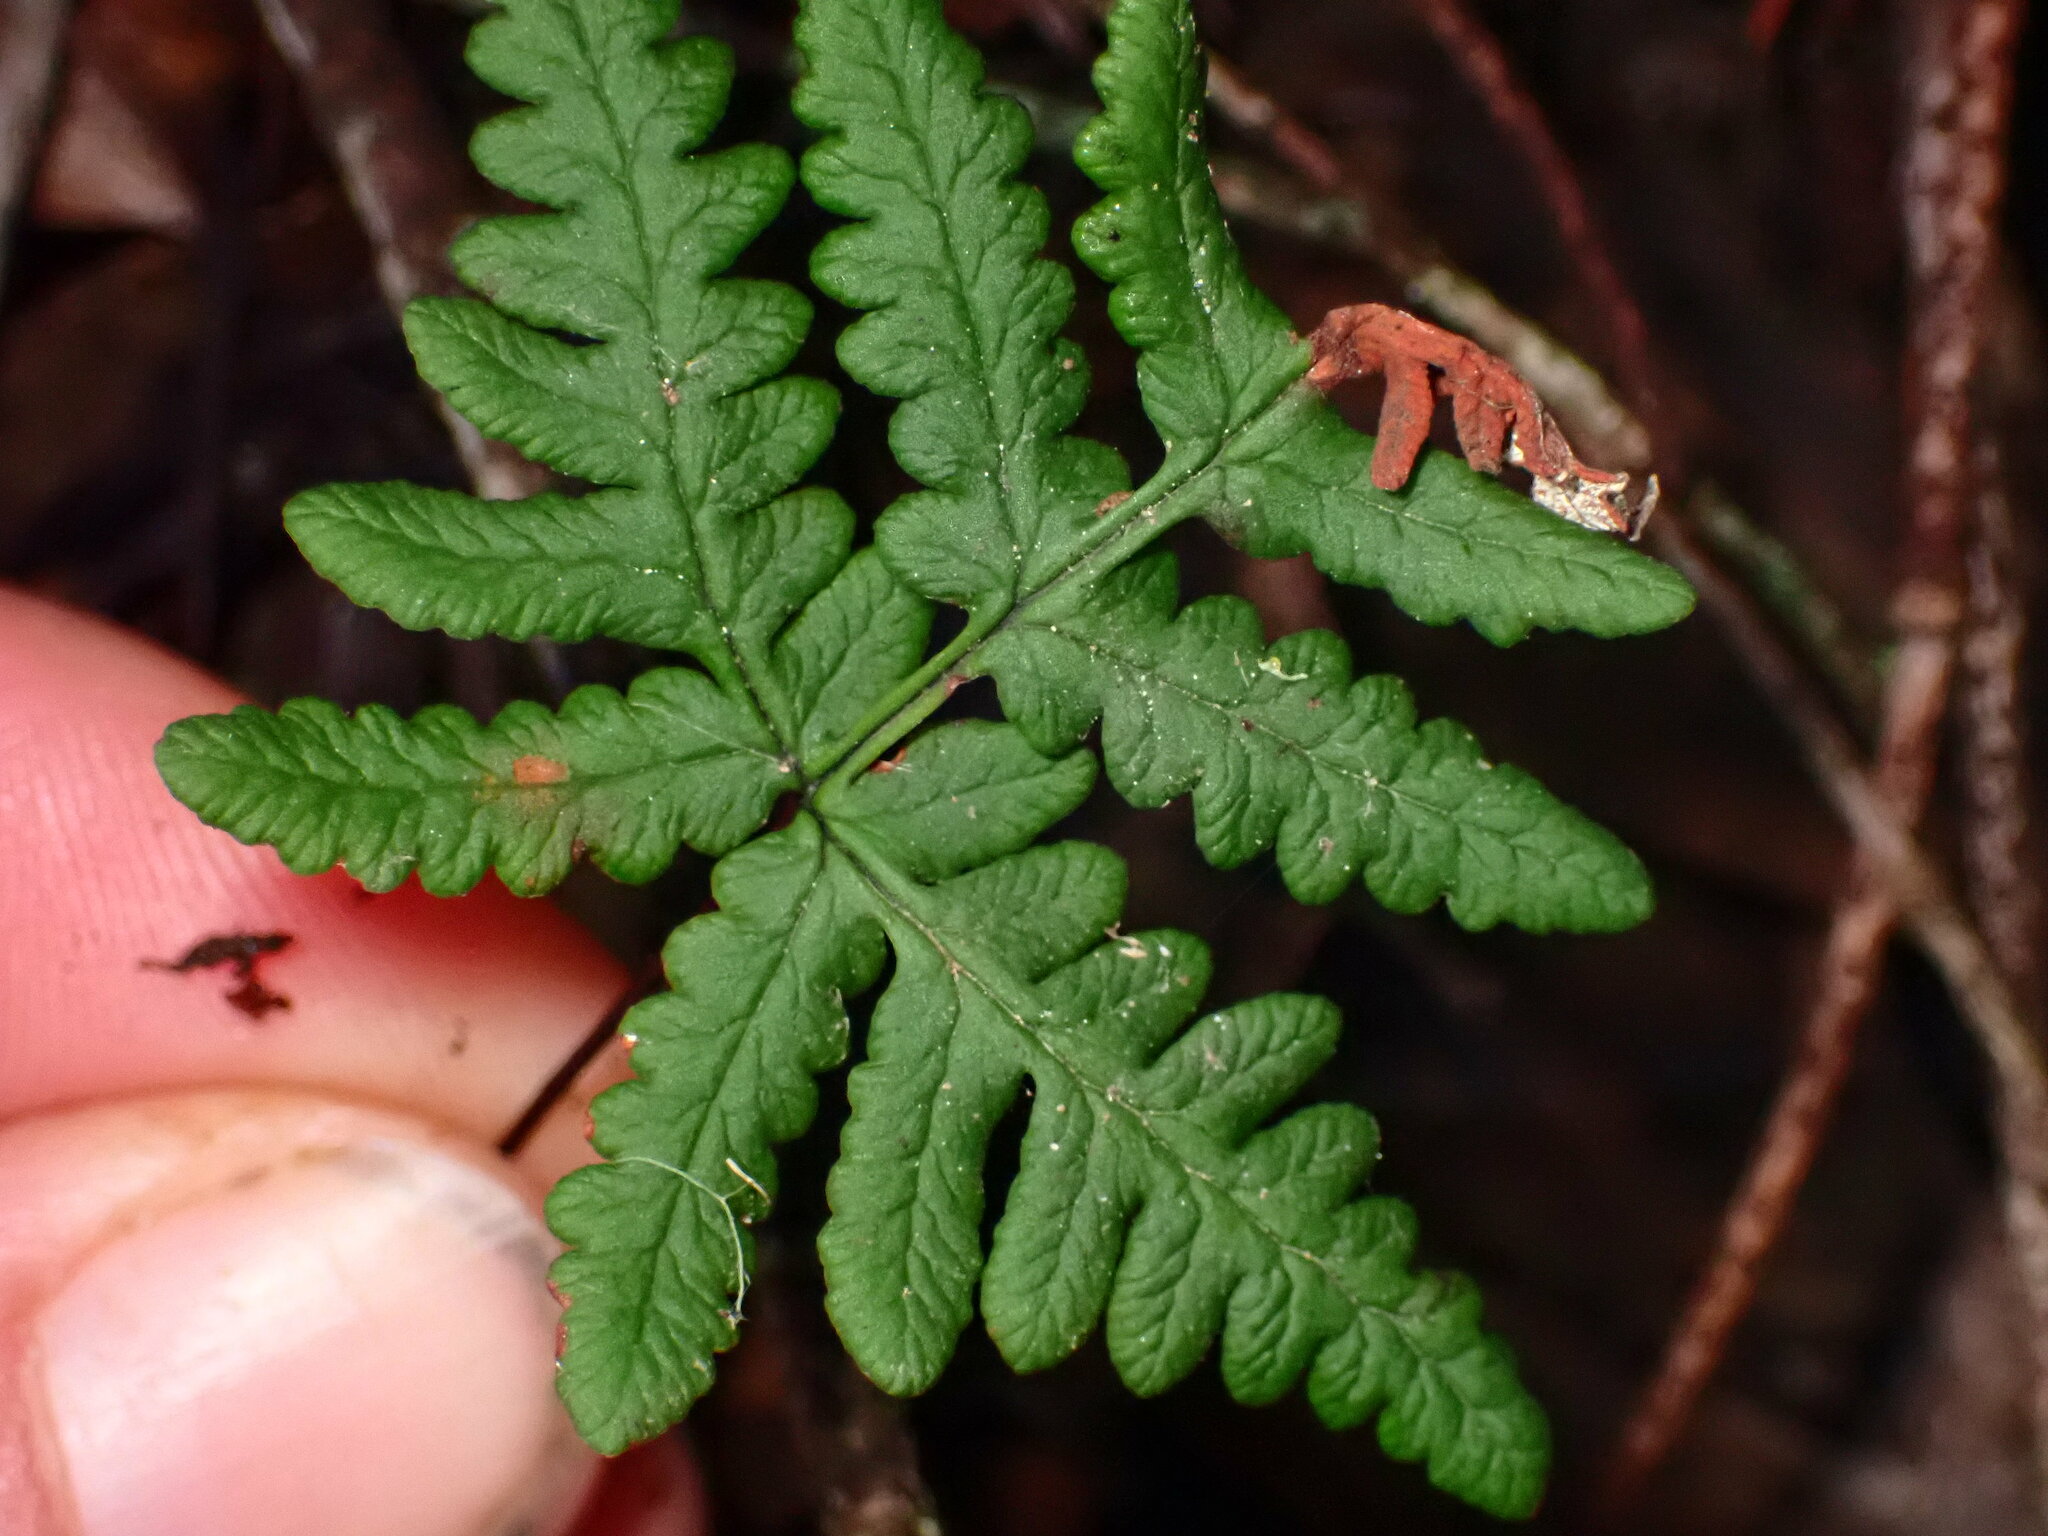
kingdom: Plantae
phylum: Tracheophyta
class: Polypodiopsida
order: Polypodiales
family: Pteridaceae
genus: Pentagramma
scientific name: Pentagramma triangularis
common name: Gold fern
